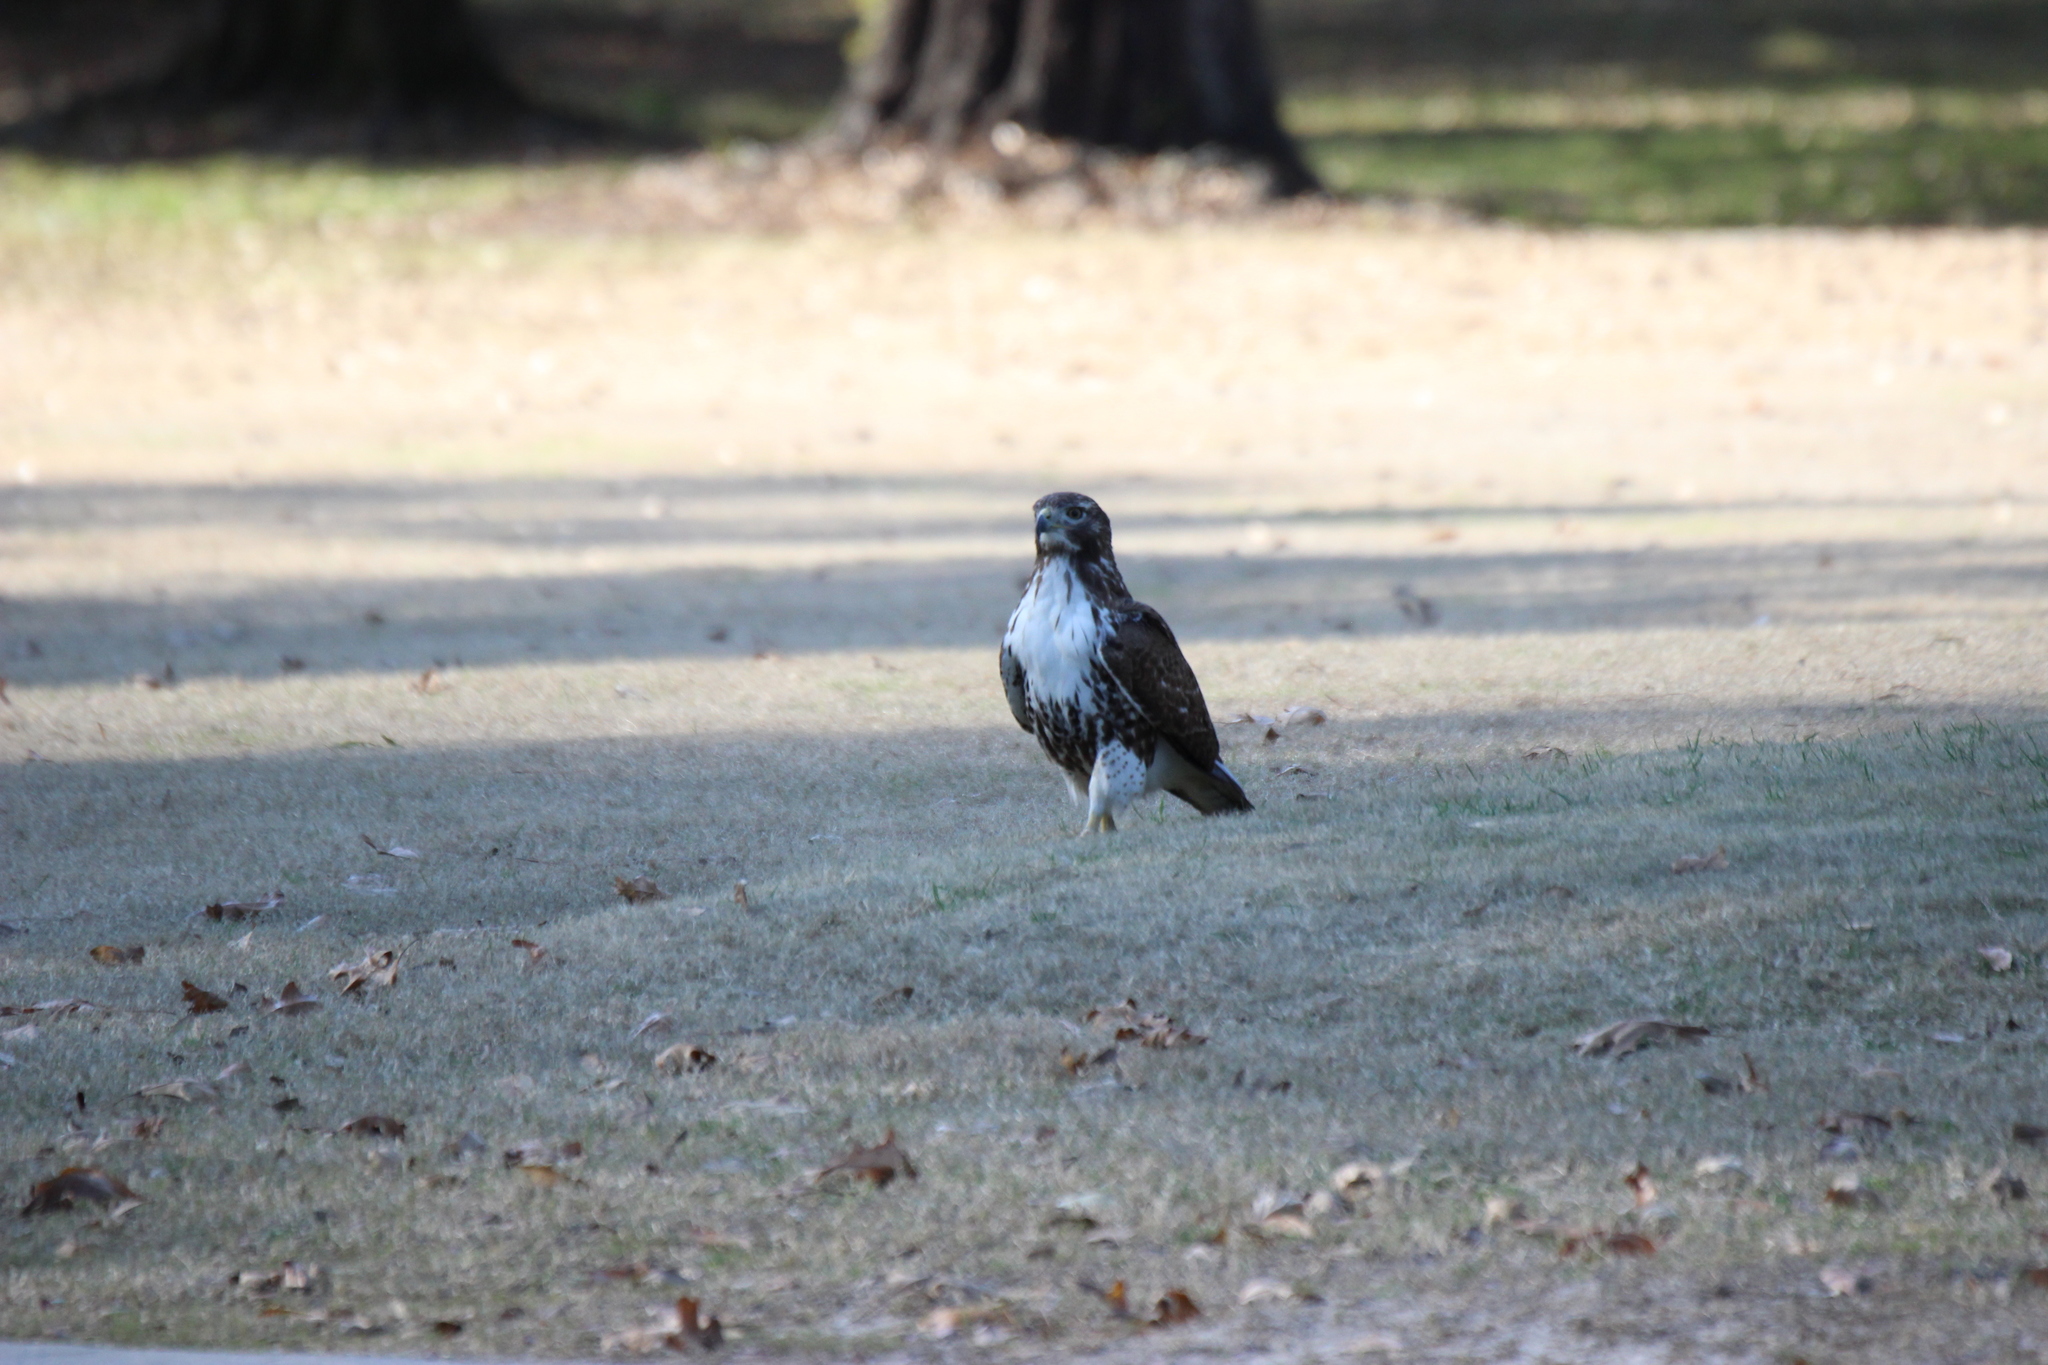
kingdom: Animalia
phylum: Chordata
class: Aves
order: Accipitriformes
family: Accipitridae
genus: Buteo
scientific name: Buteo jamaicensis
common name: Red-tailed hawk
